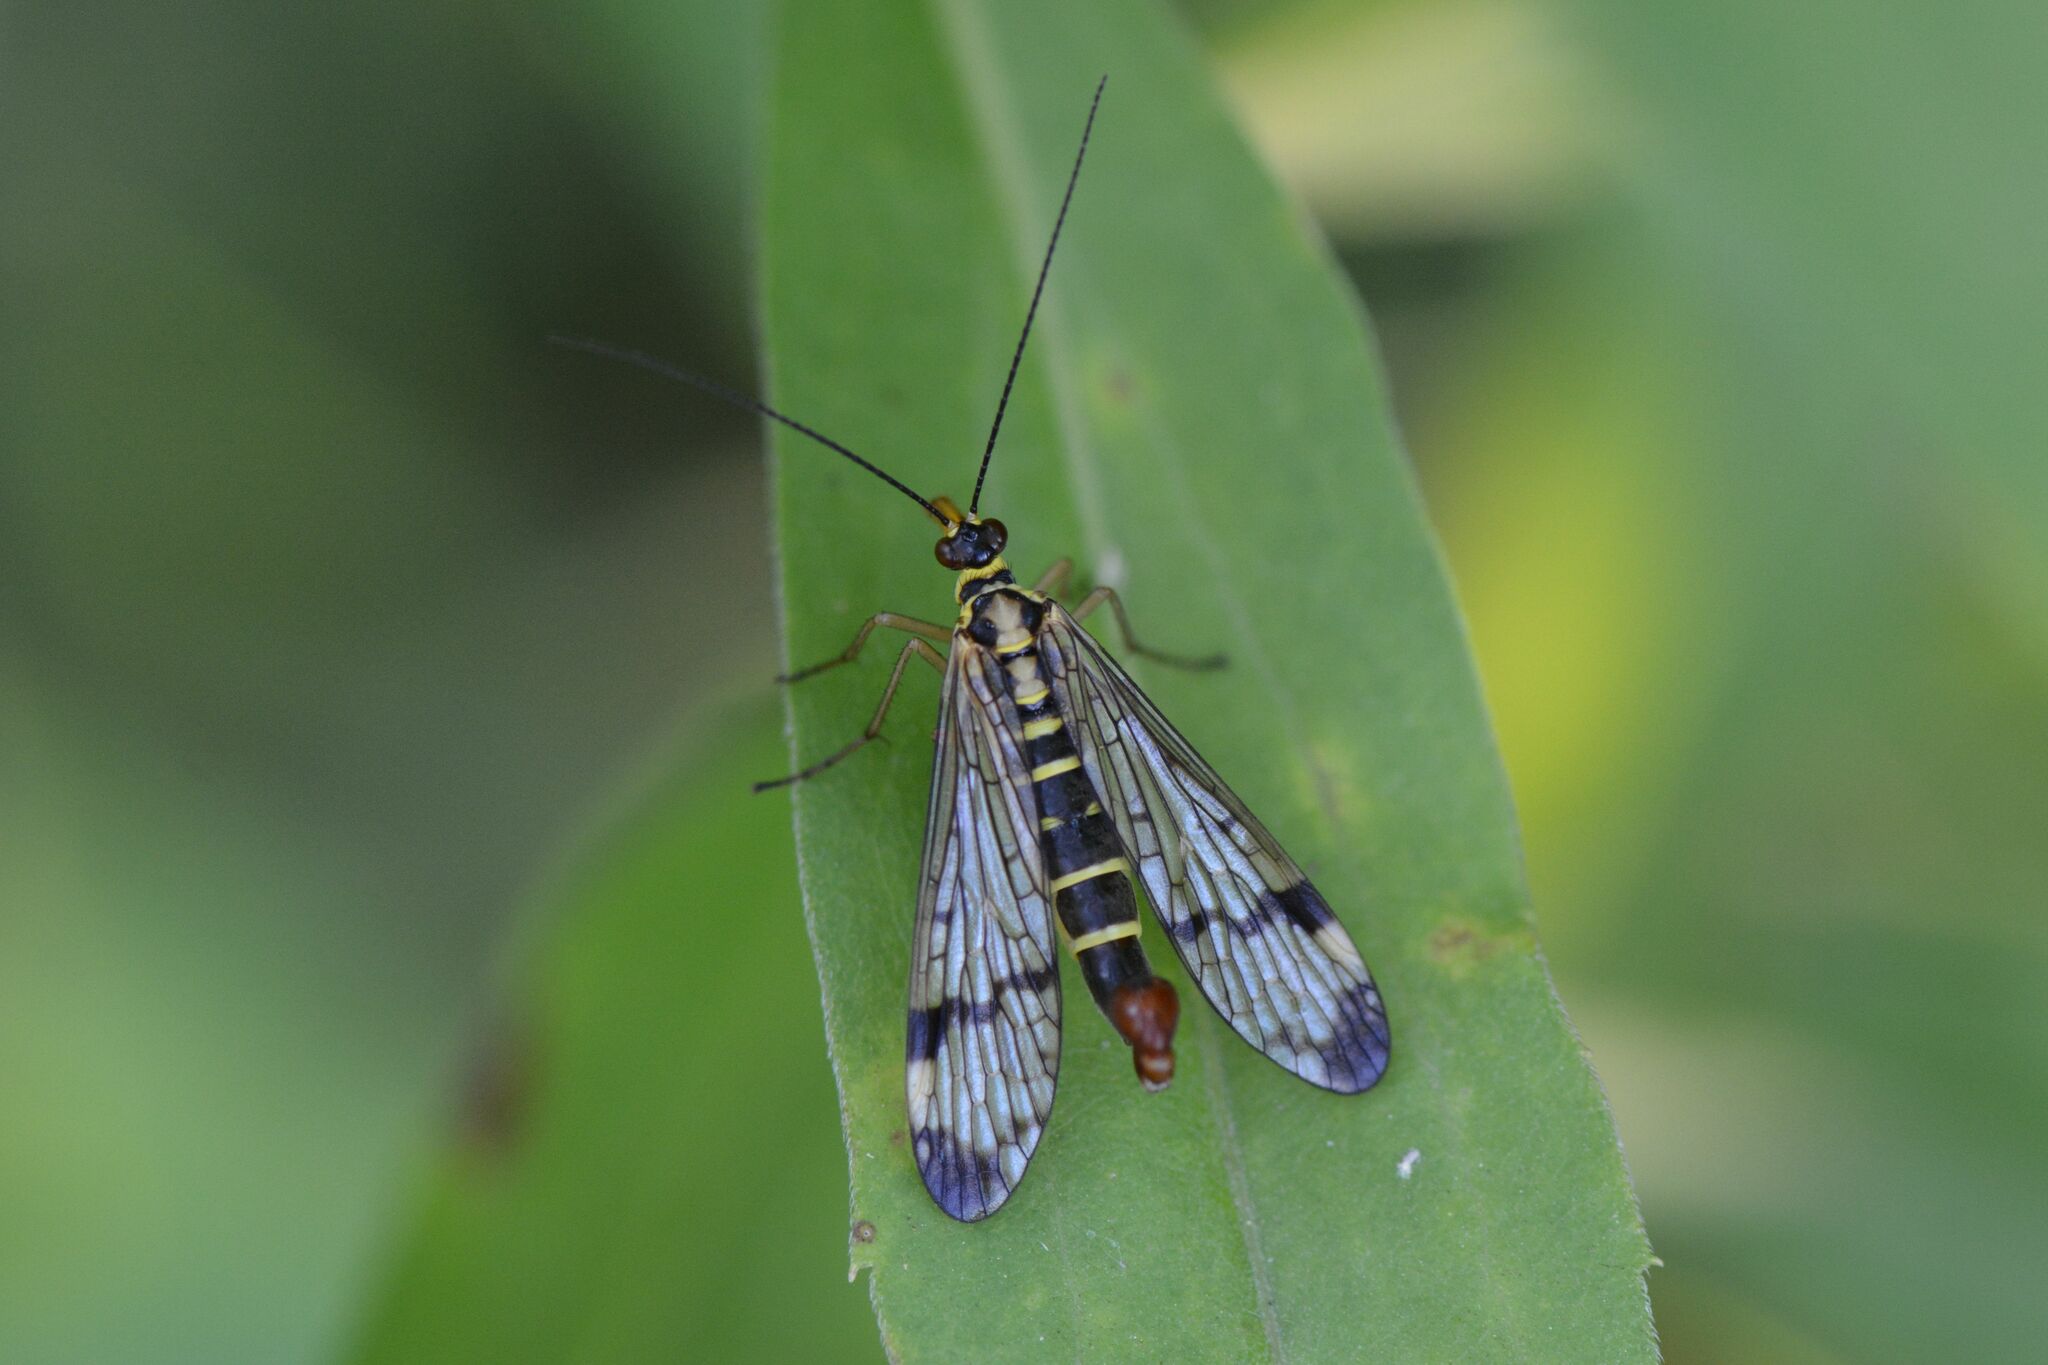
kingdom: Animalia
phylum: Arthropoda
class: Insecta
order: Mecoptera
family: Panorpidae
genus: Panorpa
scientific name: Panorpa communis
